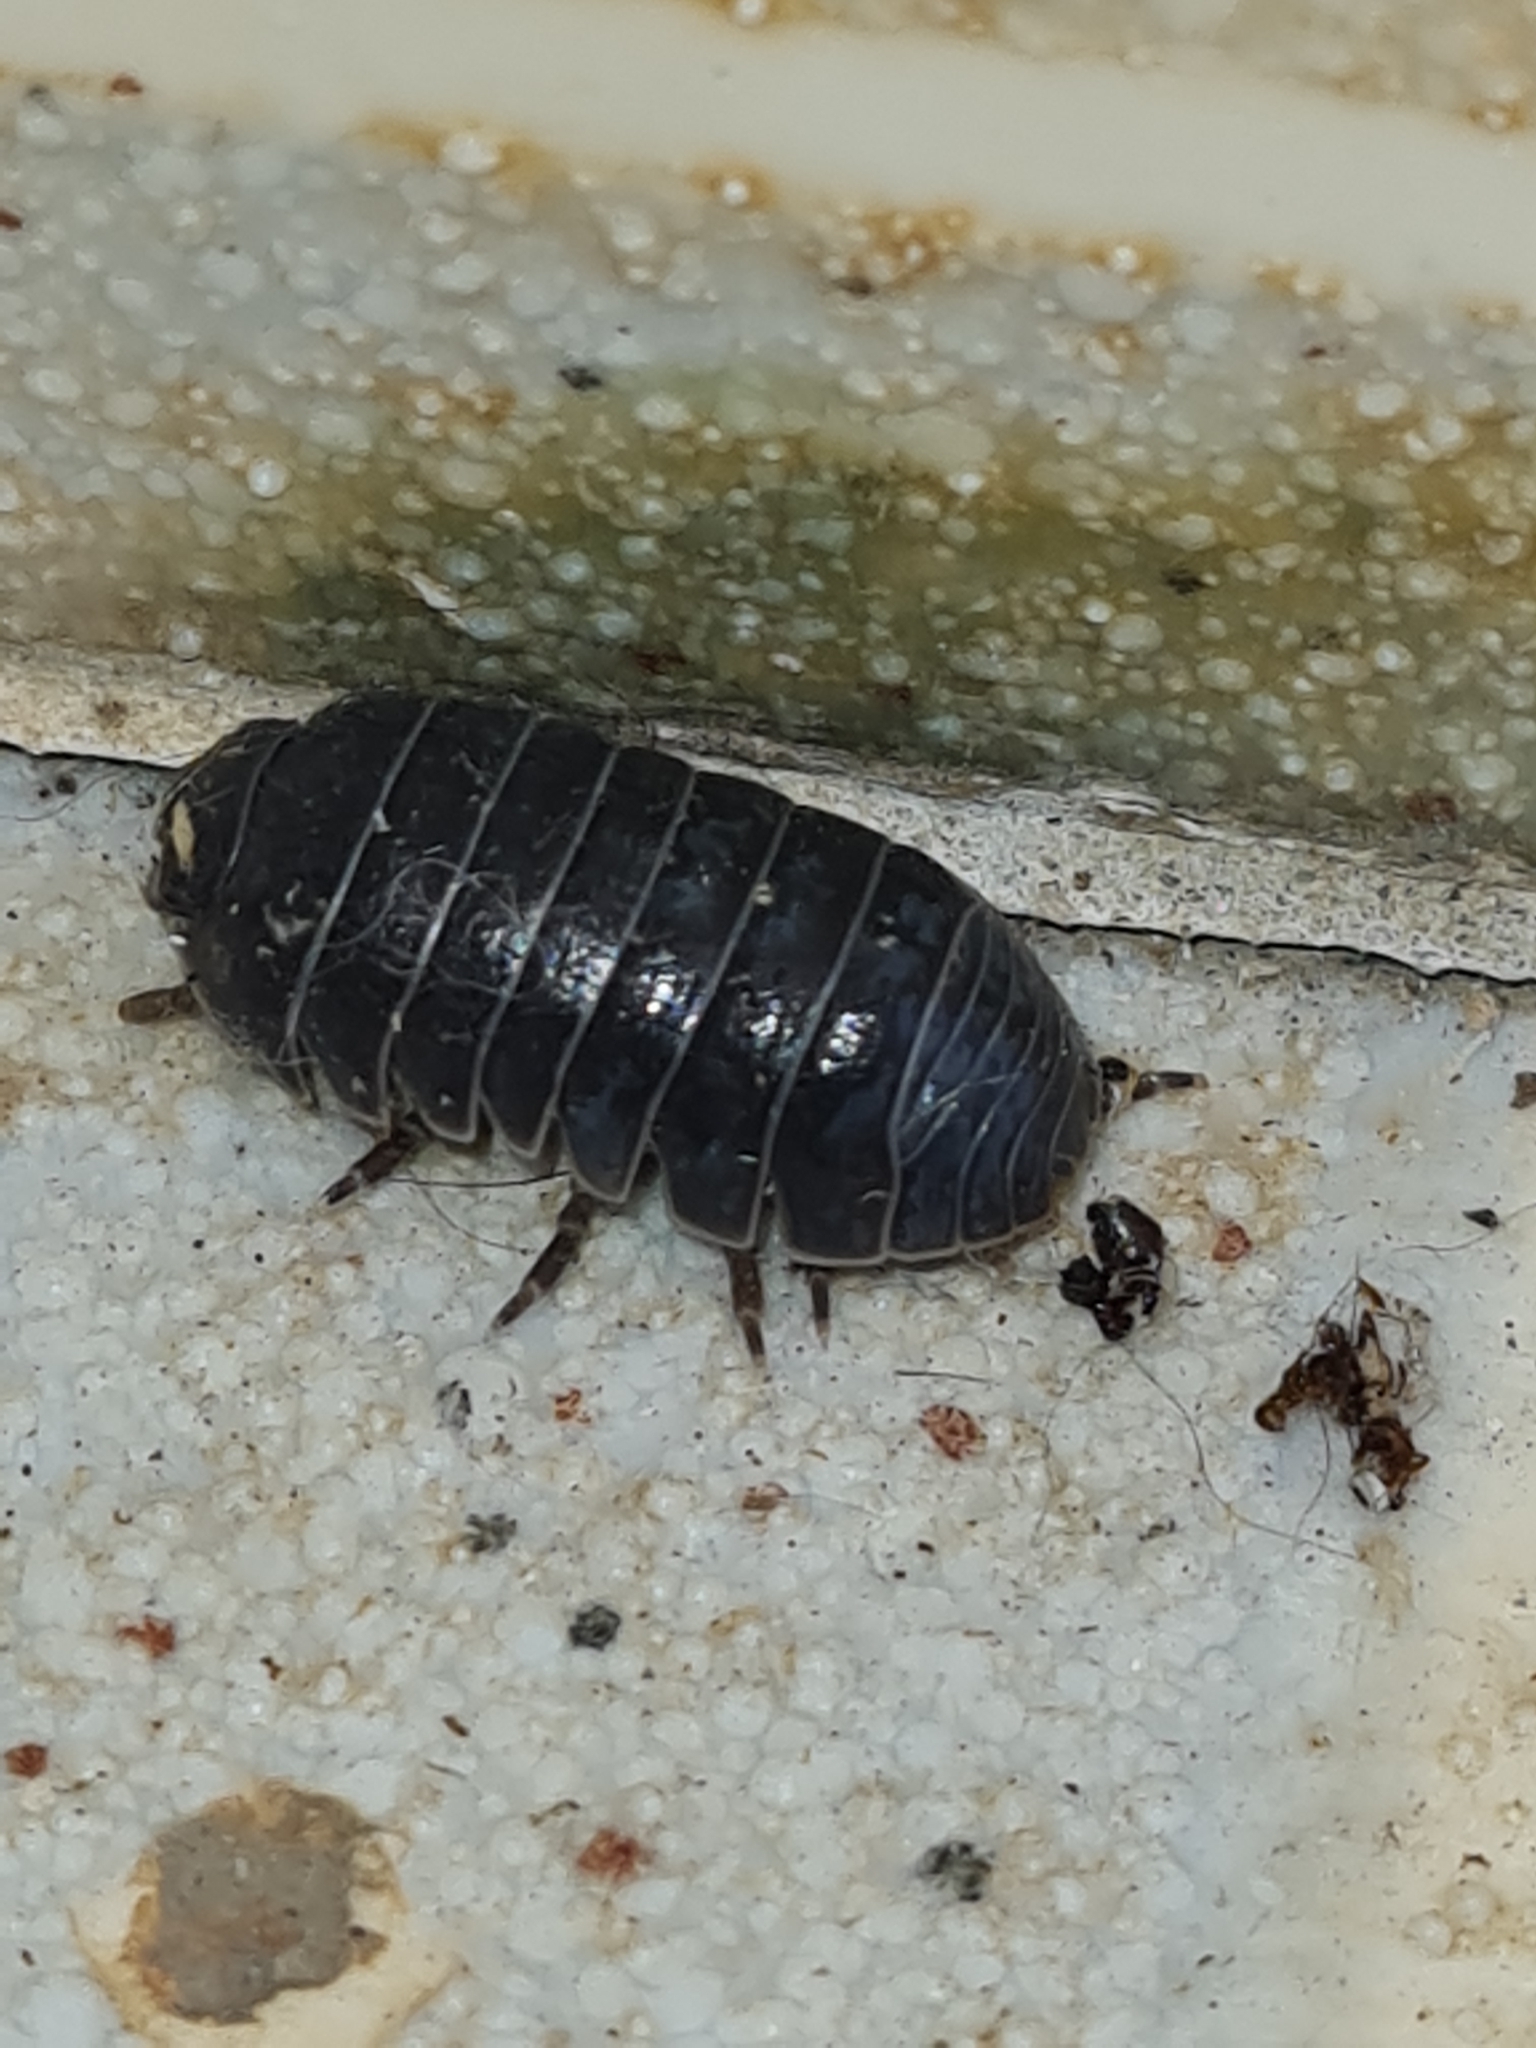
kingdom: Animalia
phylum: Arthropoda
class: Malacostraca
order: Isopoda
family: Armadillidiidae
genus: Armadillidium
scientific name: Armadillidium vulgare
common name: Common pill woodlouse
